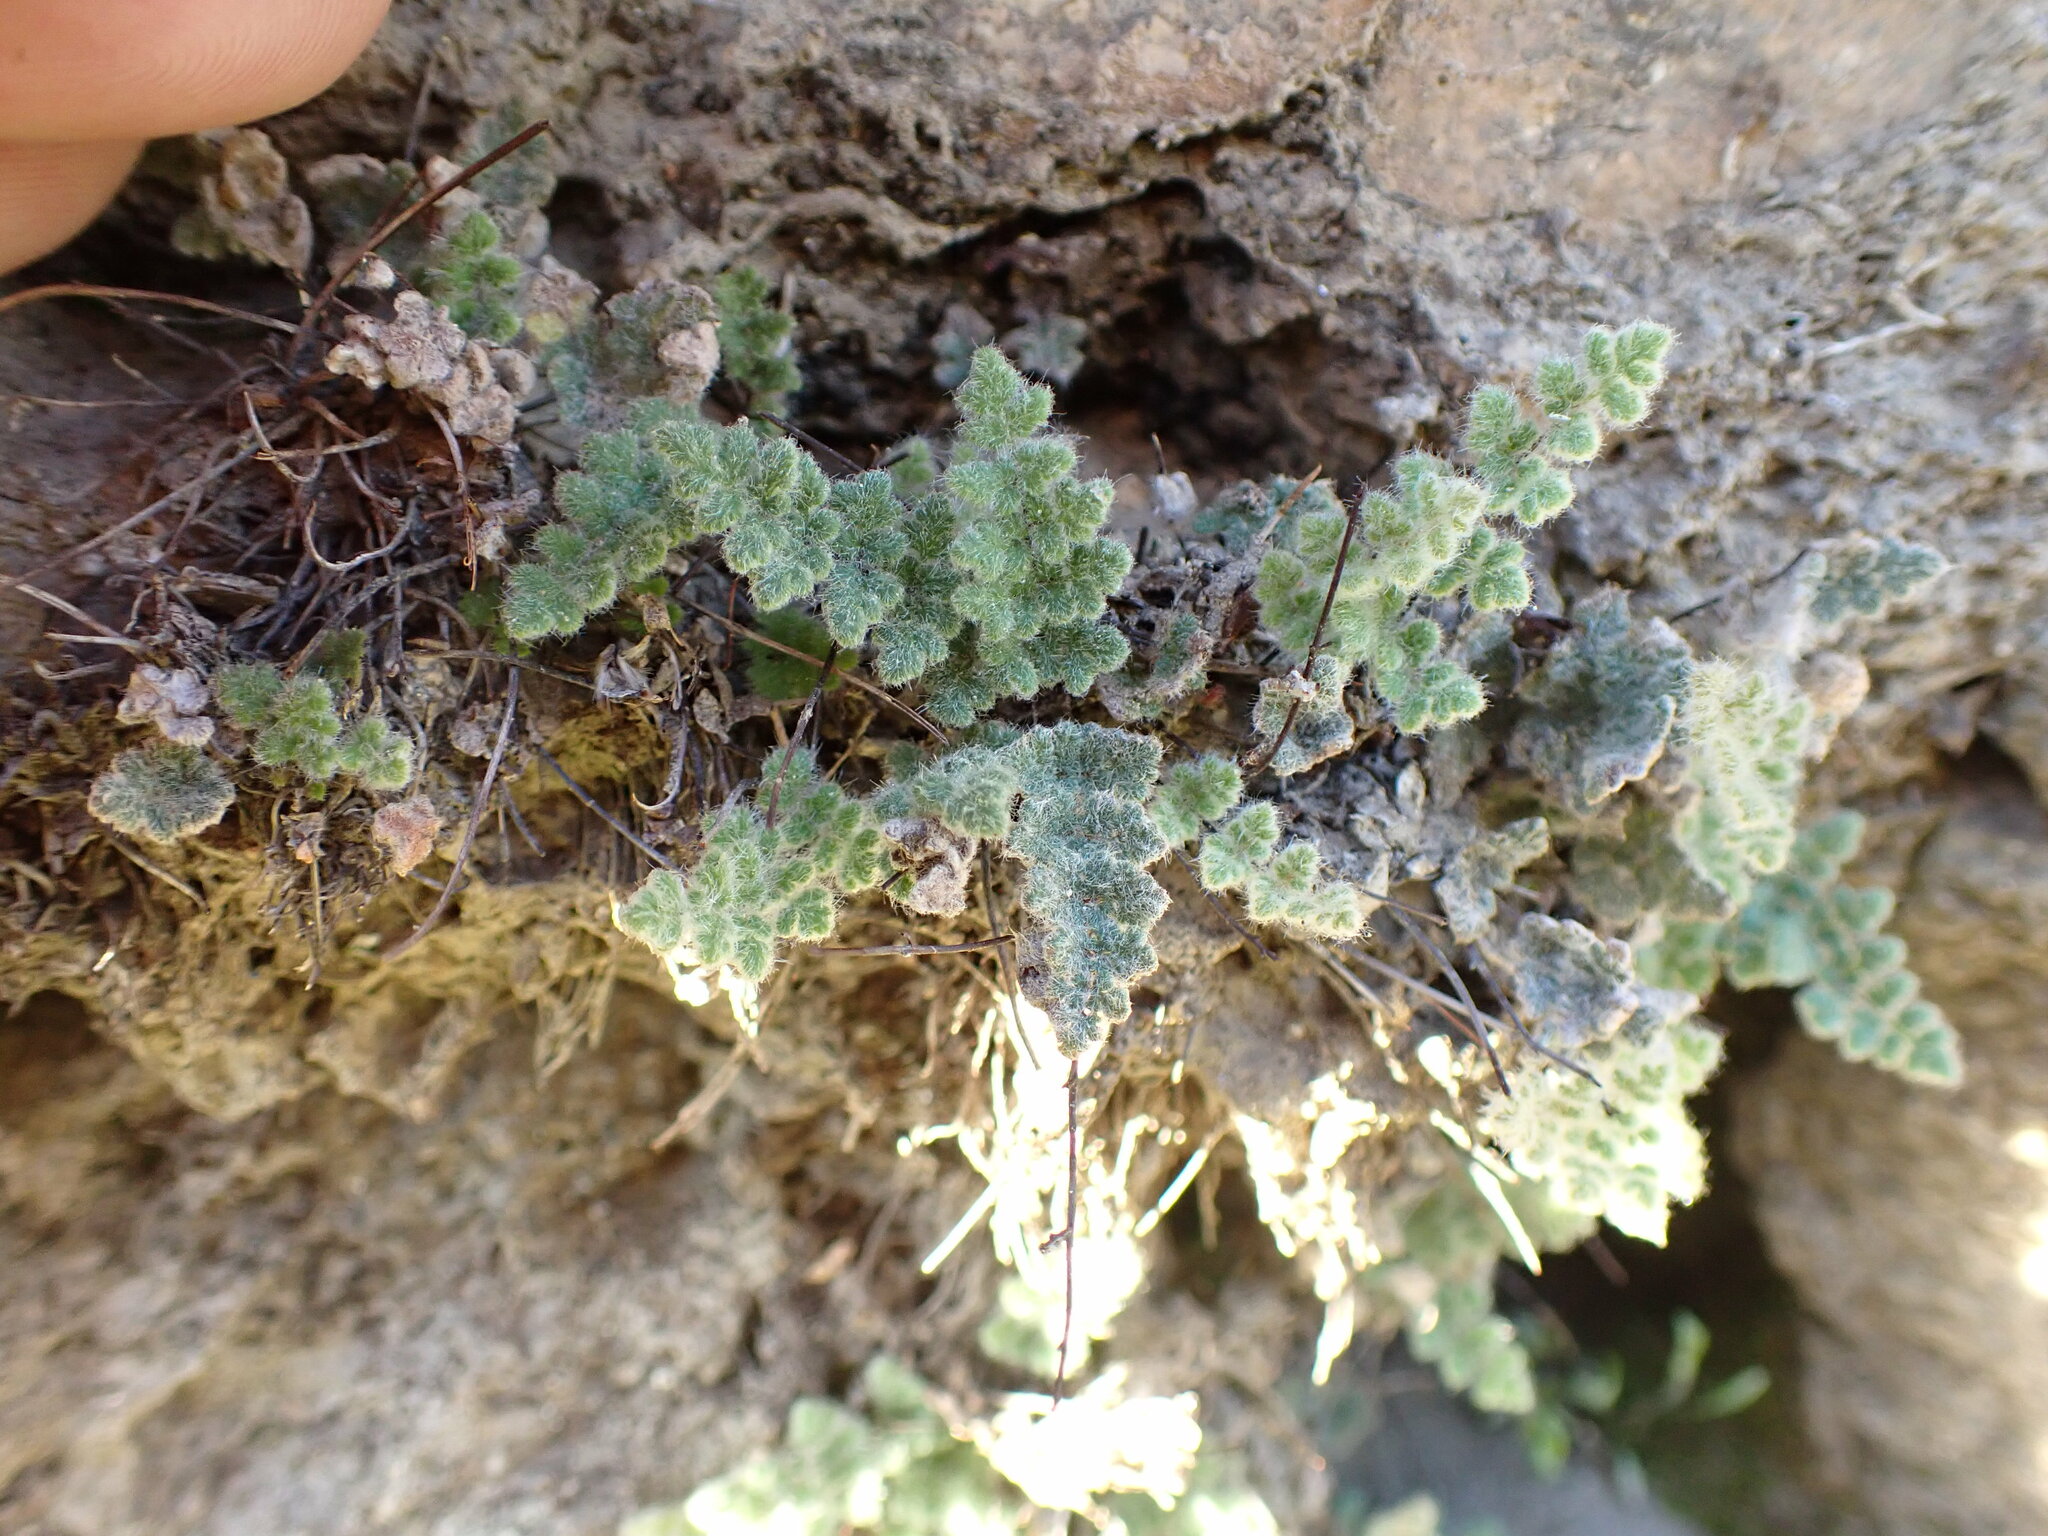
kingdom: Plantae
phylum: Tracheophyta
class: Polypodiopsida
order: Polypodiales
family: Pteridaceae
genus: Myriopteris
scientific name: Myriopteris parryi
